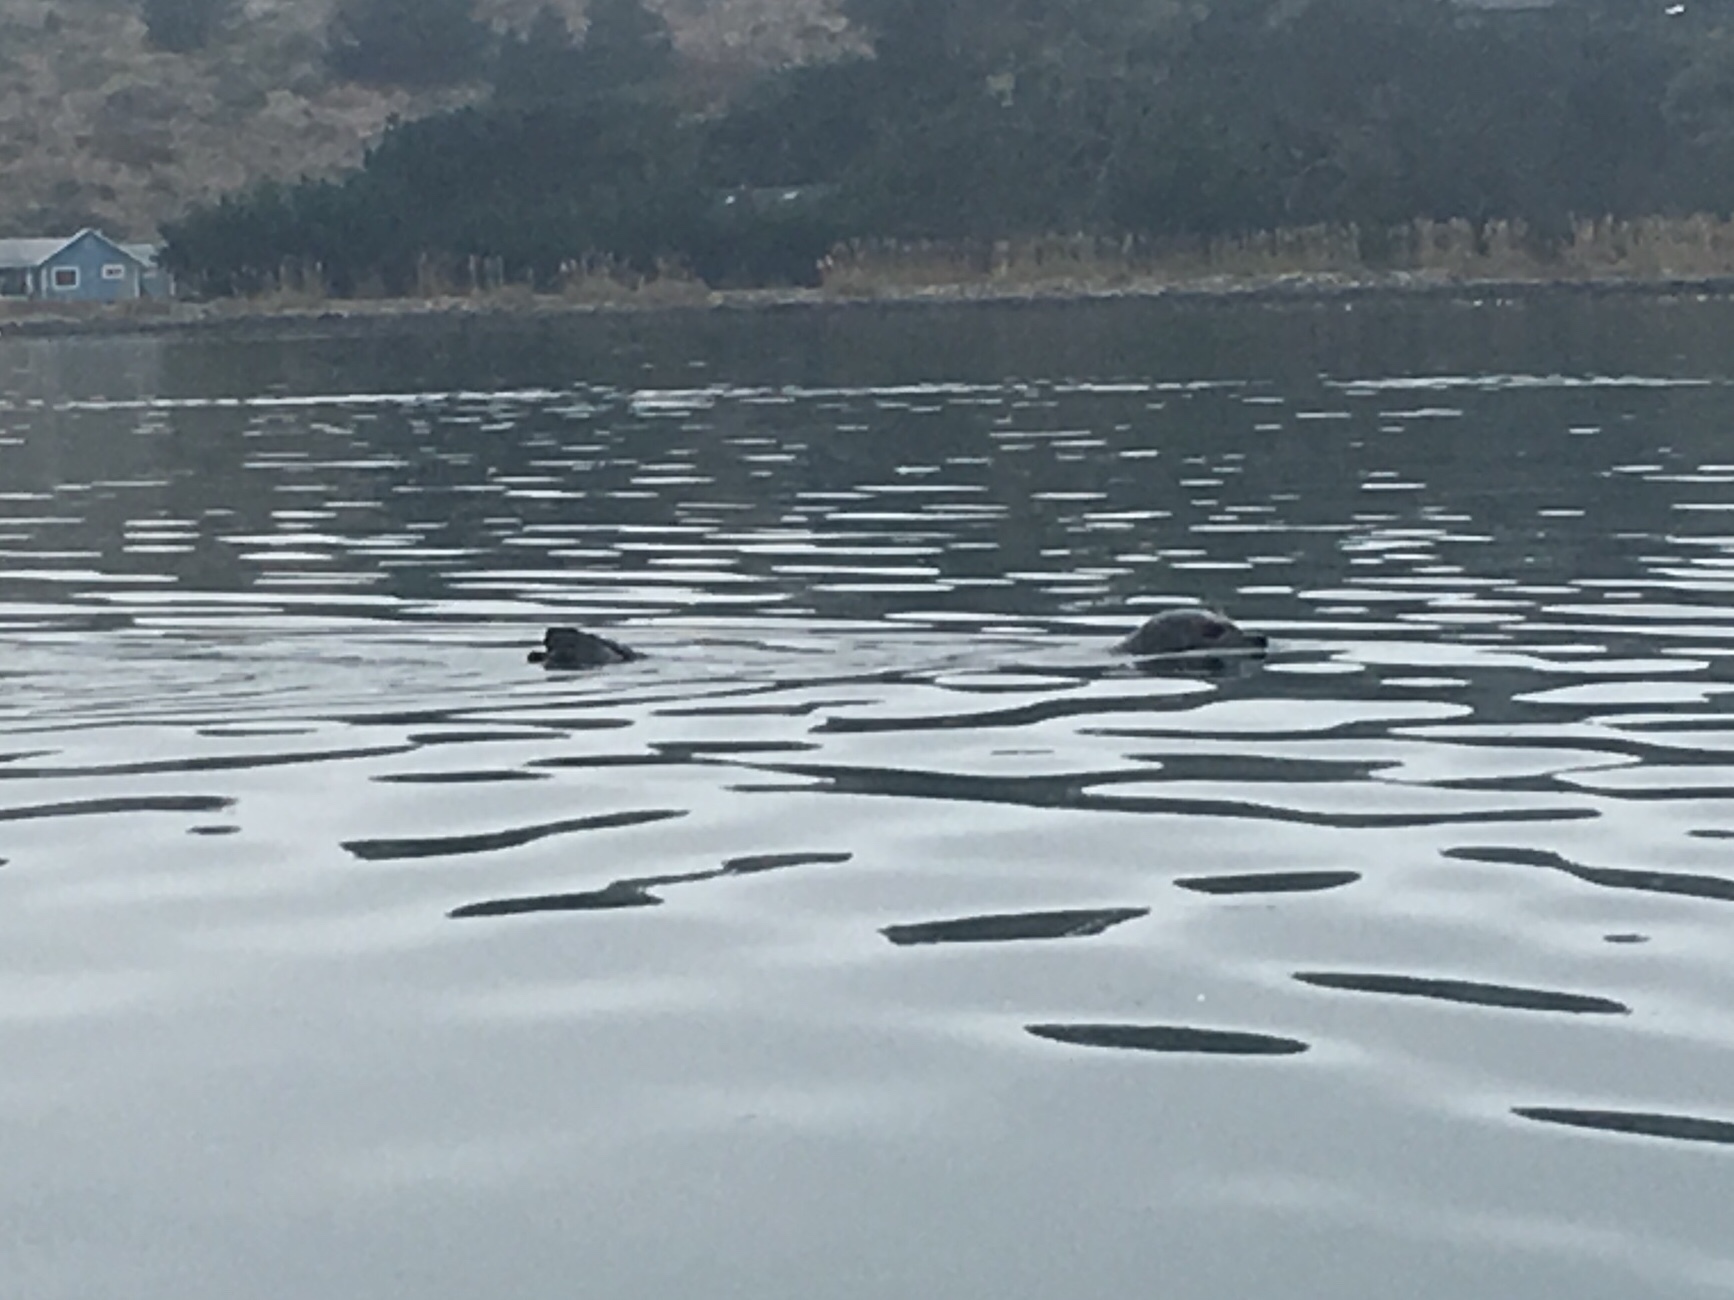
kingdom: Animalia
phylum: Chordata
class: Mammalia
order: Carnivora
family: Phocidae
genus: Phoca
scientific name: Phoca vitulina
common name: Harbor seal
